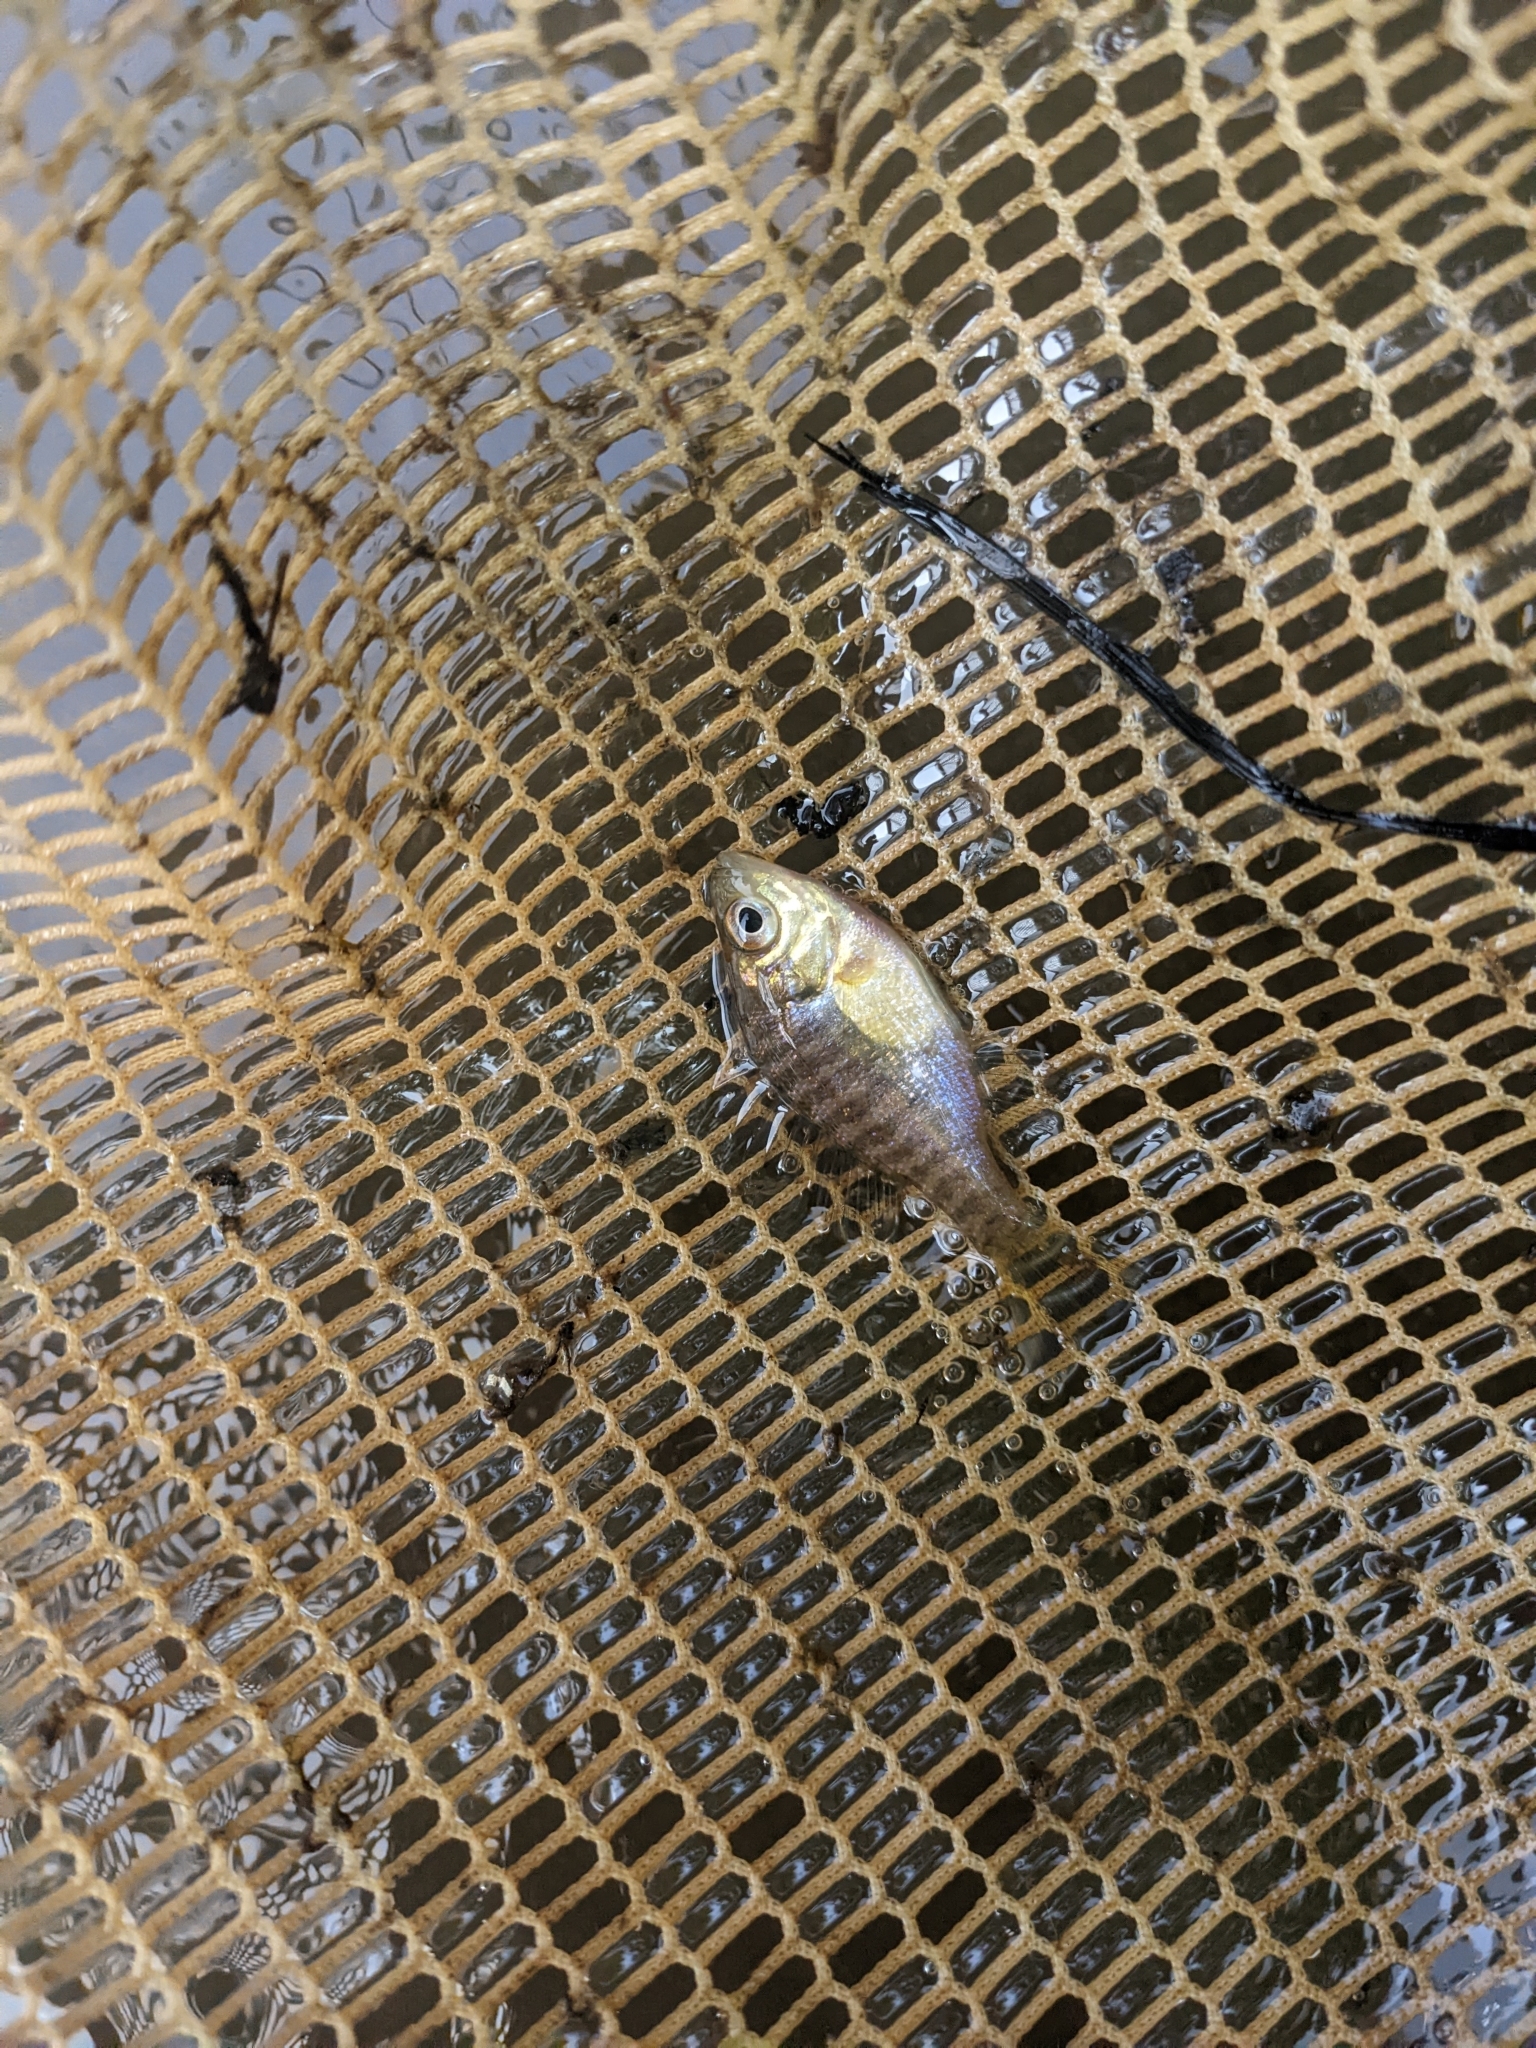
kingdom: Animalia
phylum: Chordata
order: Perciformes
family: Centrarchidae
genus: Lepomis
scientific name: Lepomis macrochirus
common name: Bluegill
